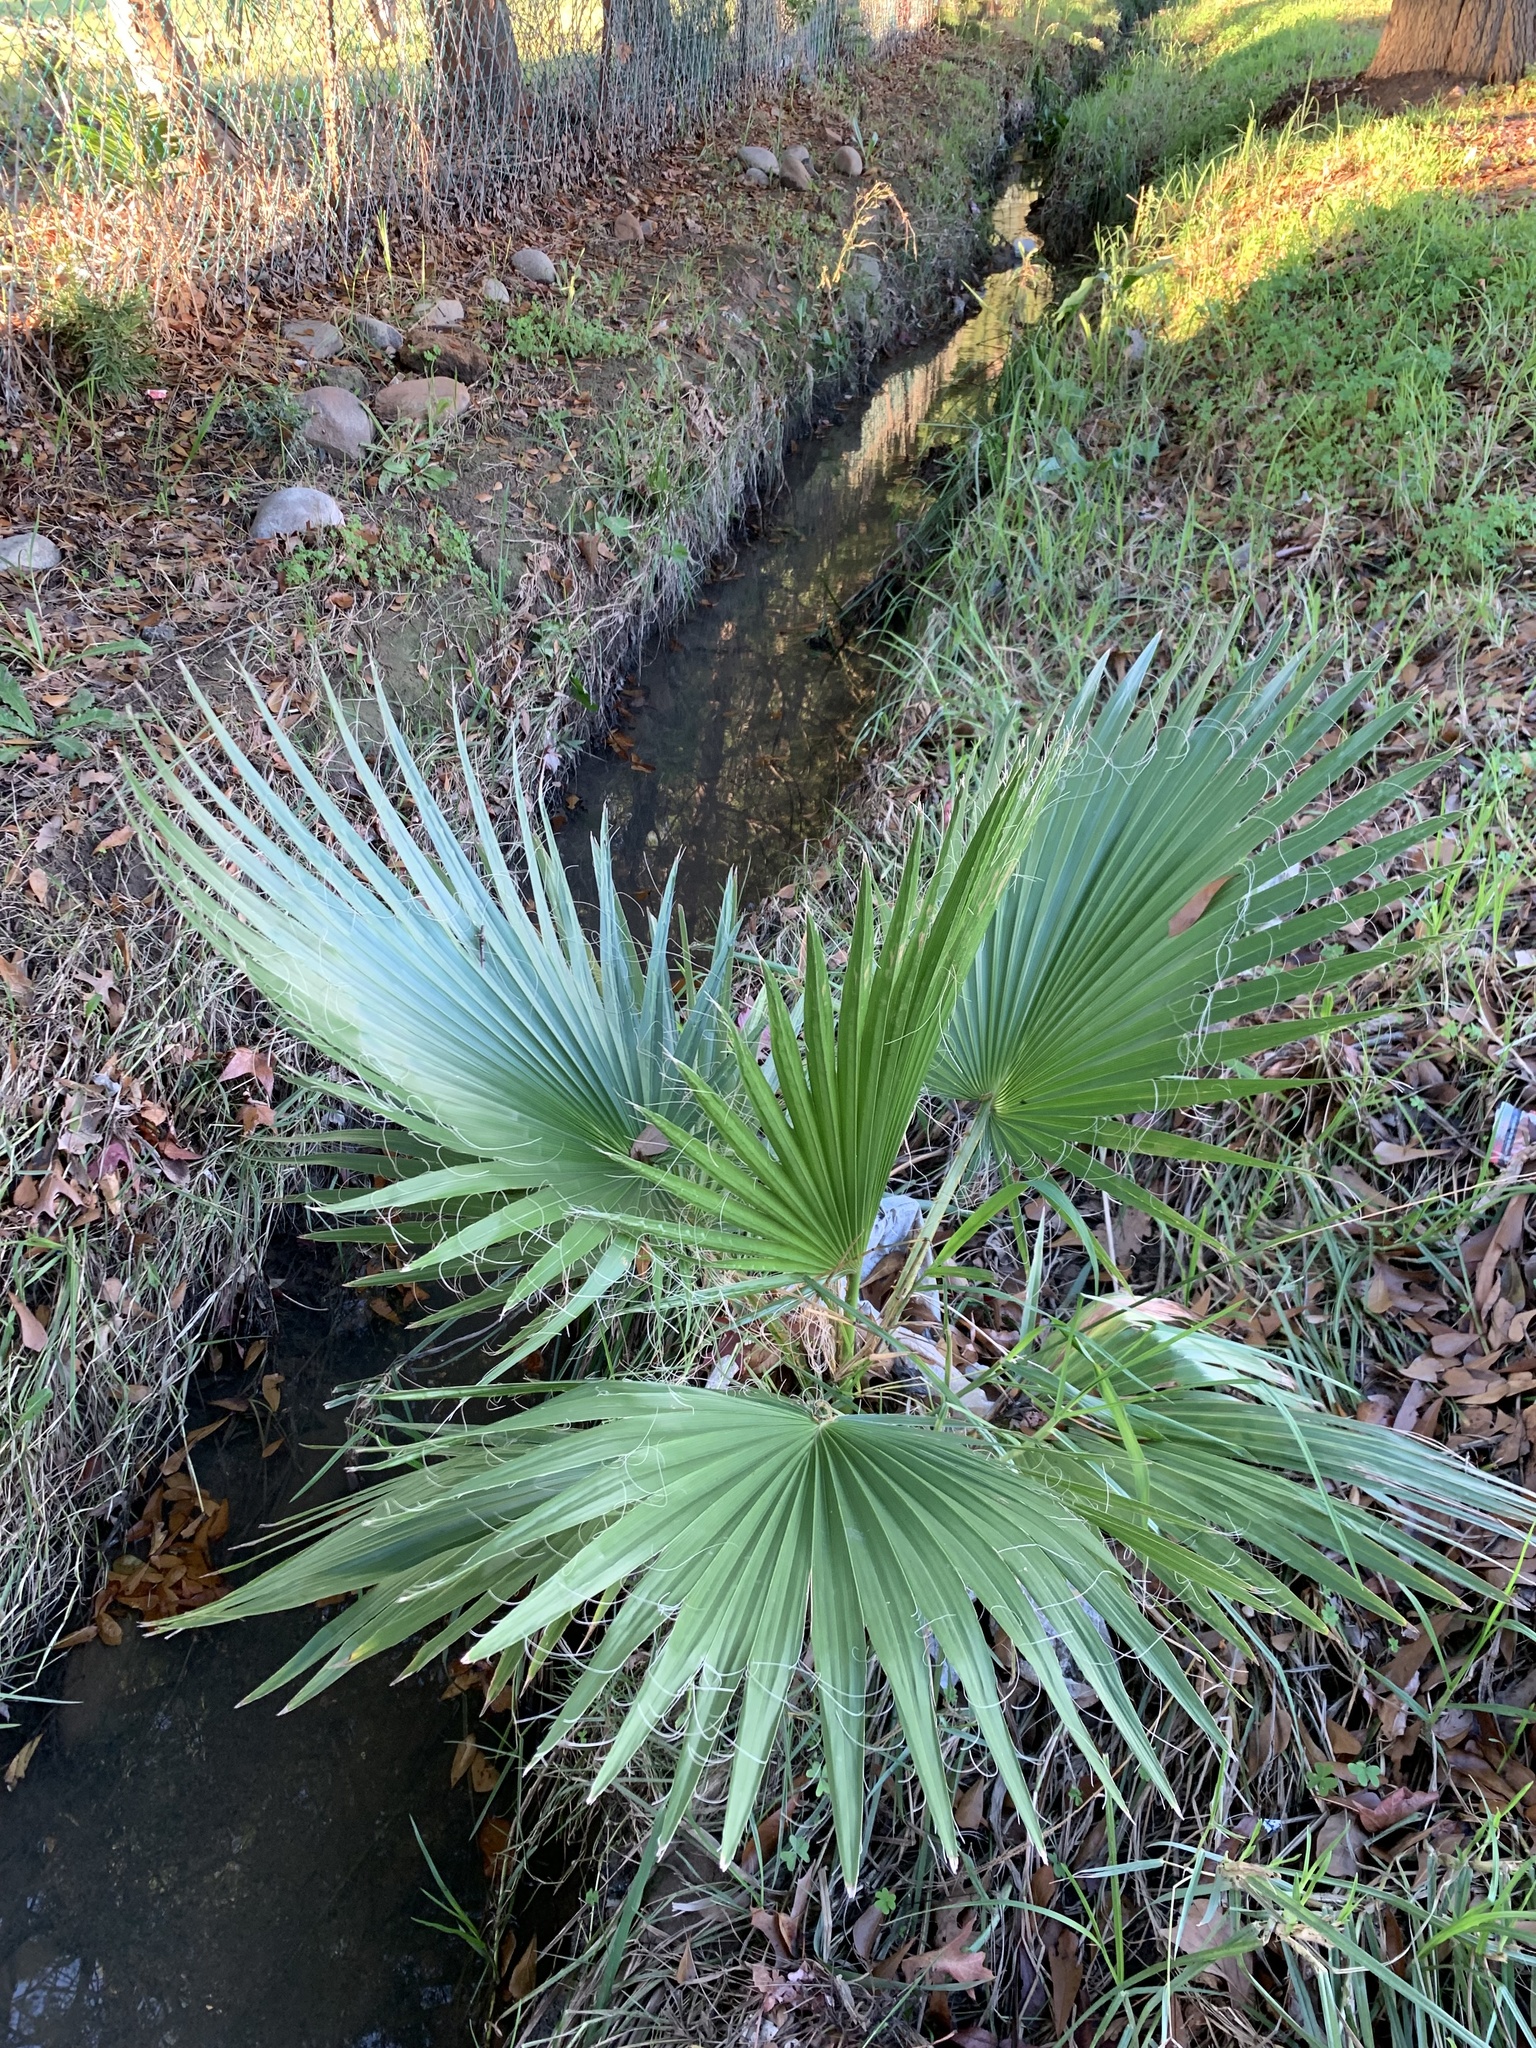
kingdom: Plantae
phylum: Tracheophyta
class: Liliopsida
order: Arecales
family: Arecaceae
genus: Washingtonia
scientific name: Washingtonia robusta
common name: Mexican fan palm
